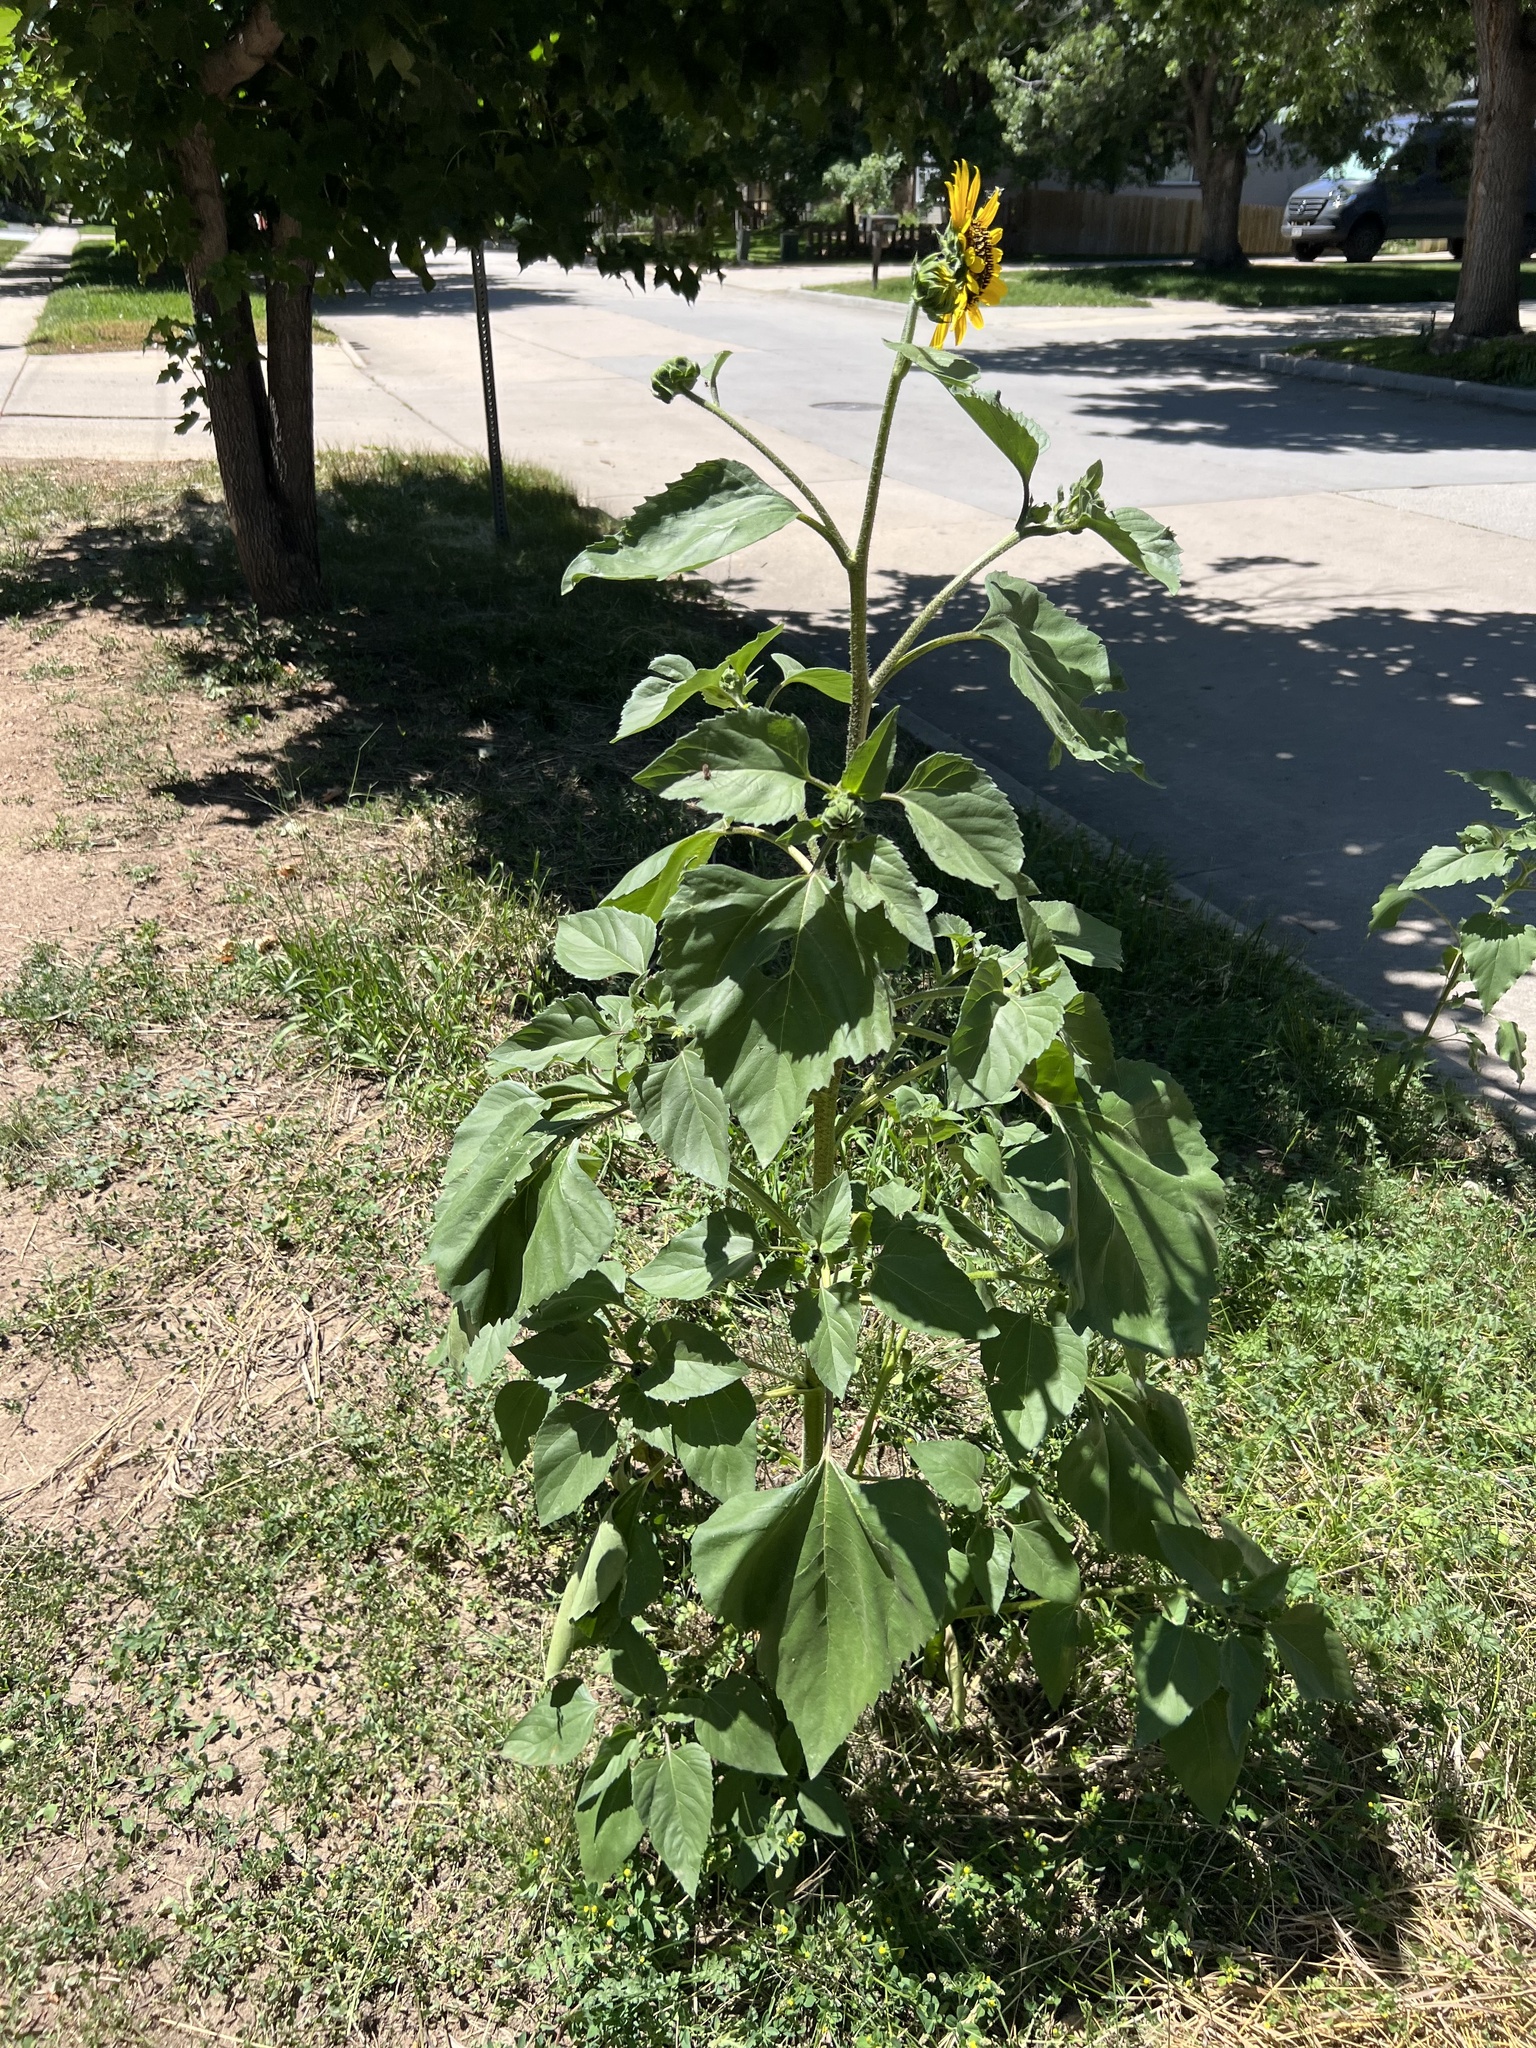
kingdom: Plantae
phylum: Tracheophyta
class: Magnoliopsida
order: Asterales
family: Asteraceae
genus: Helianthus
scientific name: Helianthus annuus
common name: Sunflower
